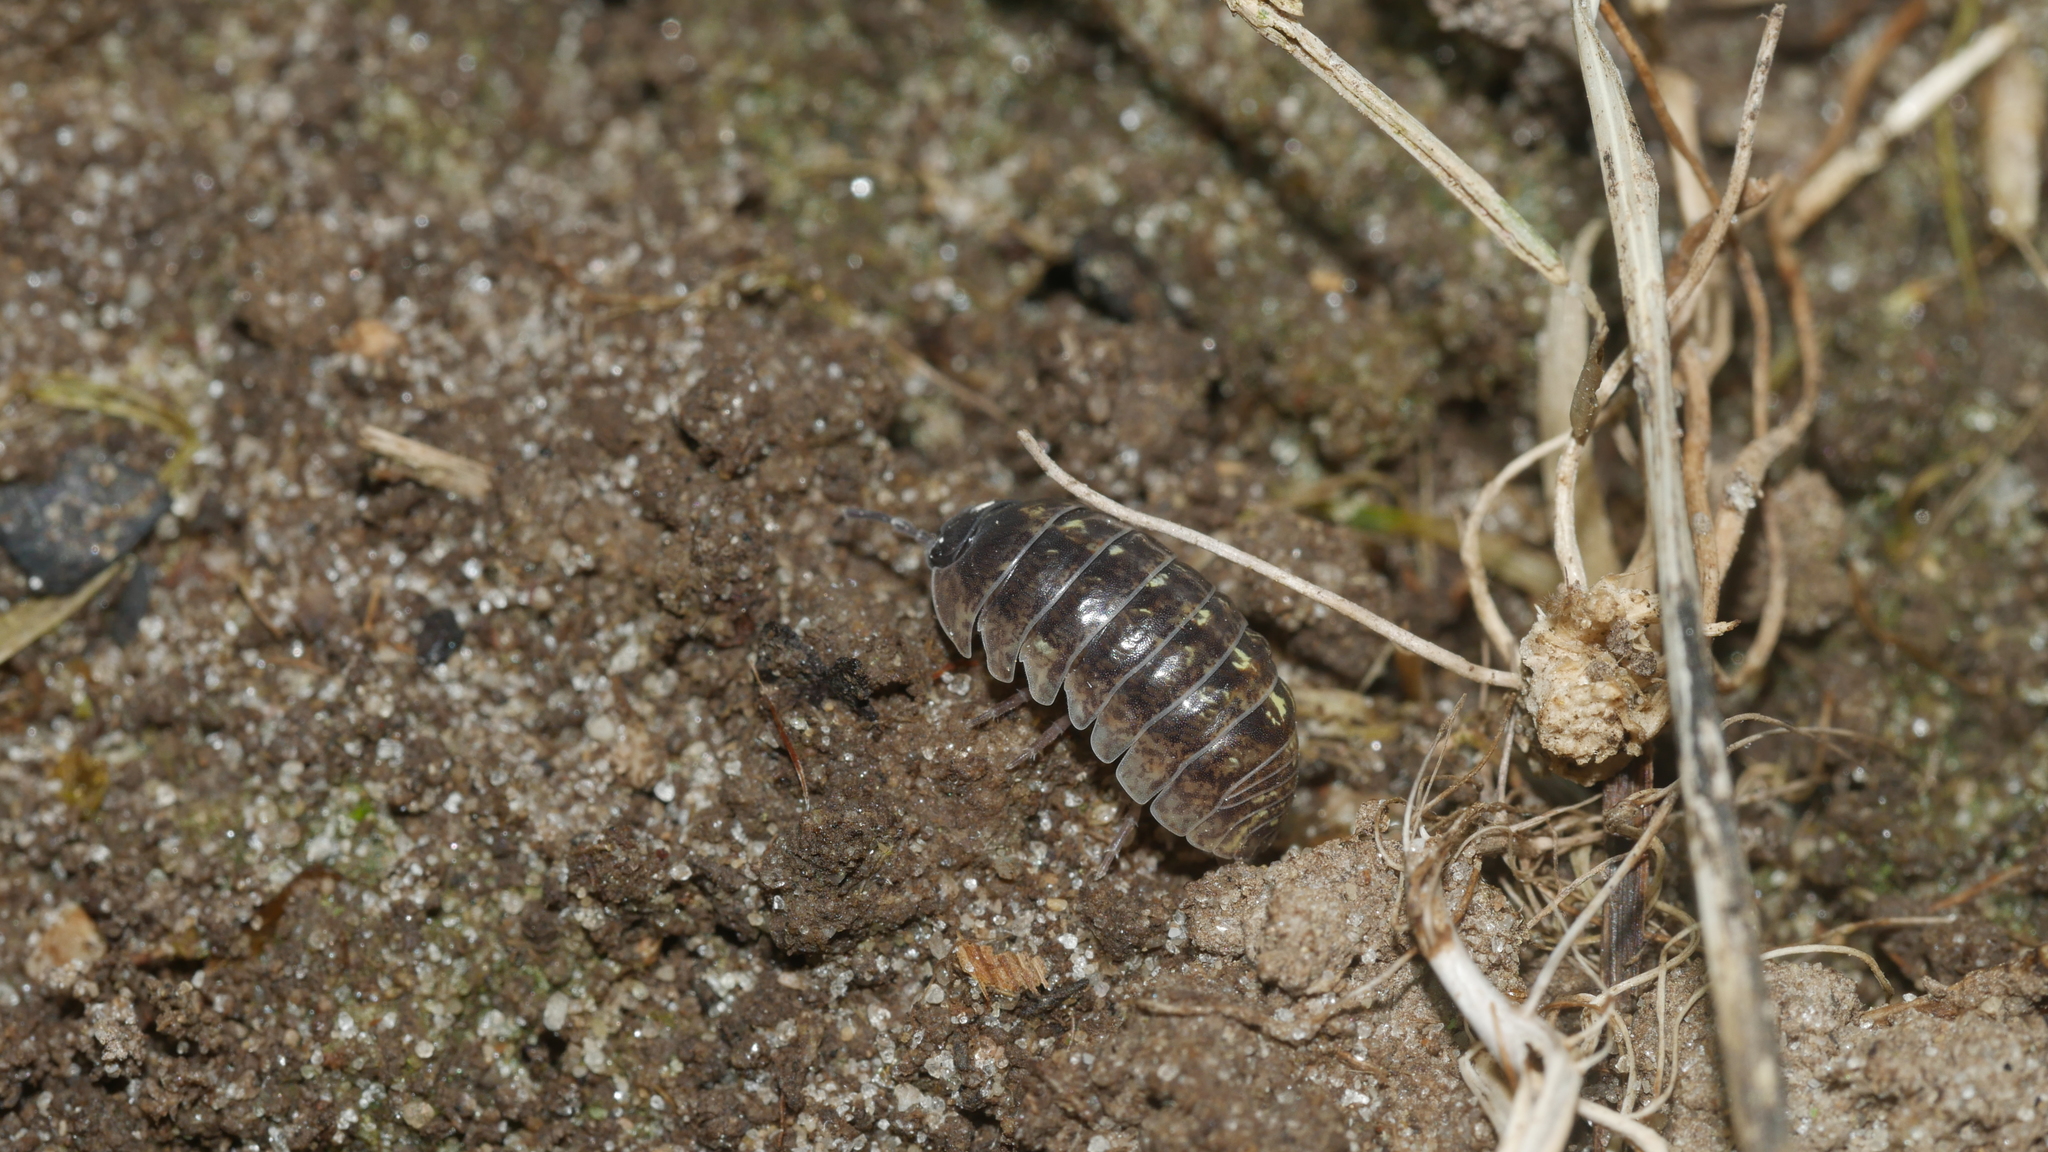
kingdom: Animalia
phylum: Arthropoda
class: Malacostraca
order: Isopoda
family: Armadillidiidae
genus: Armadillidium
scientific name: Armadillidium vulgare
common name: Common pill woodlouse
